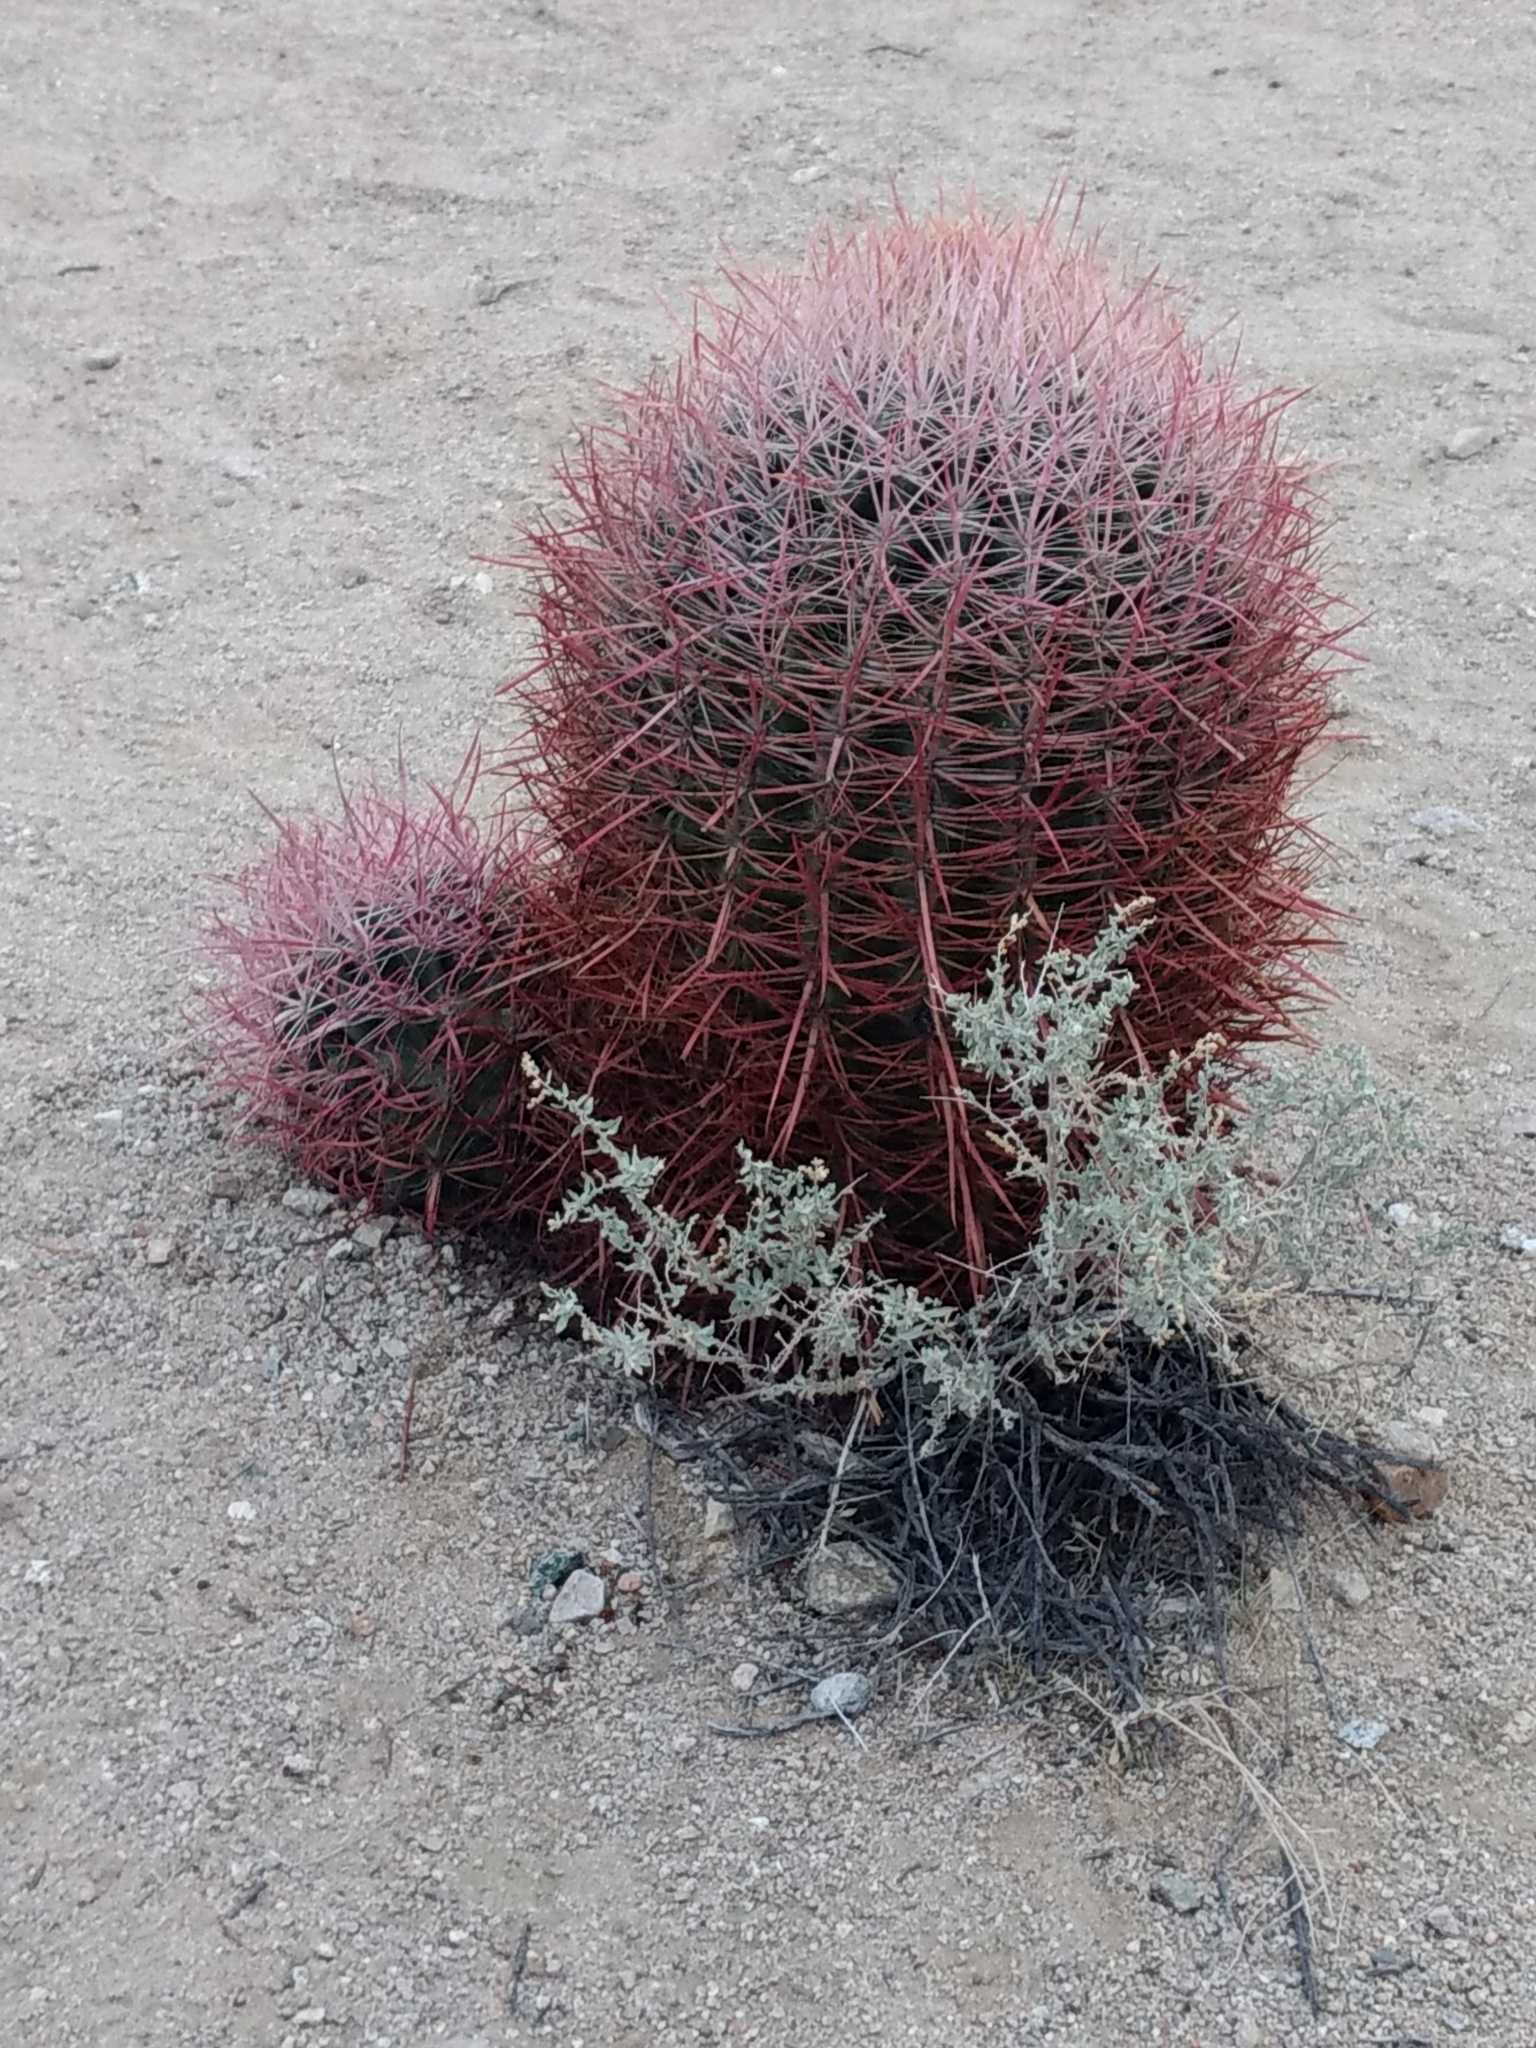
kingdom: Plantae
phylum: Tracheophyta
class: Magnoliopsida
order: Caryophyllales
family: Cactaceae
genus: Ferocactus
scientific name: Ferocactus cylindraceus
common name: California barrel cactus
